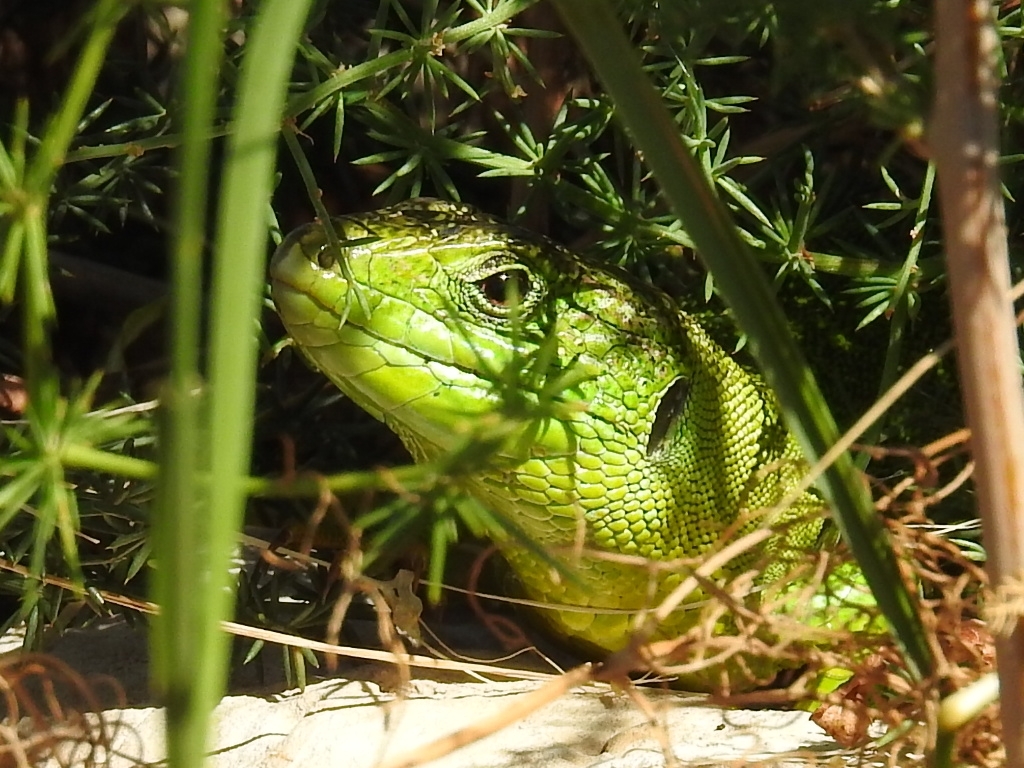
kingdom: Animalia
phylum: Chordata
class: Squamata
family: Lacertidae
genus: Lacerta
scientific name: Lacerta bilineata
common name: Western green lizard
